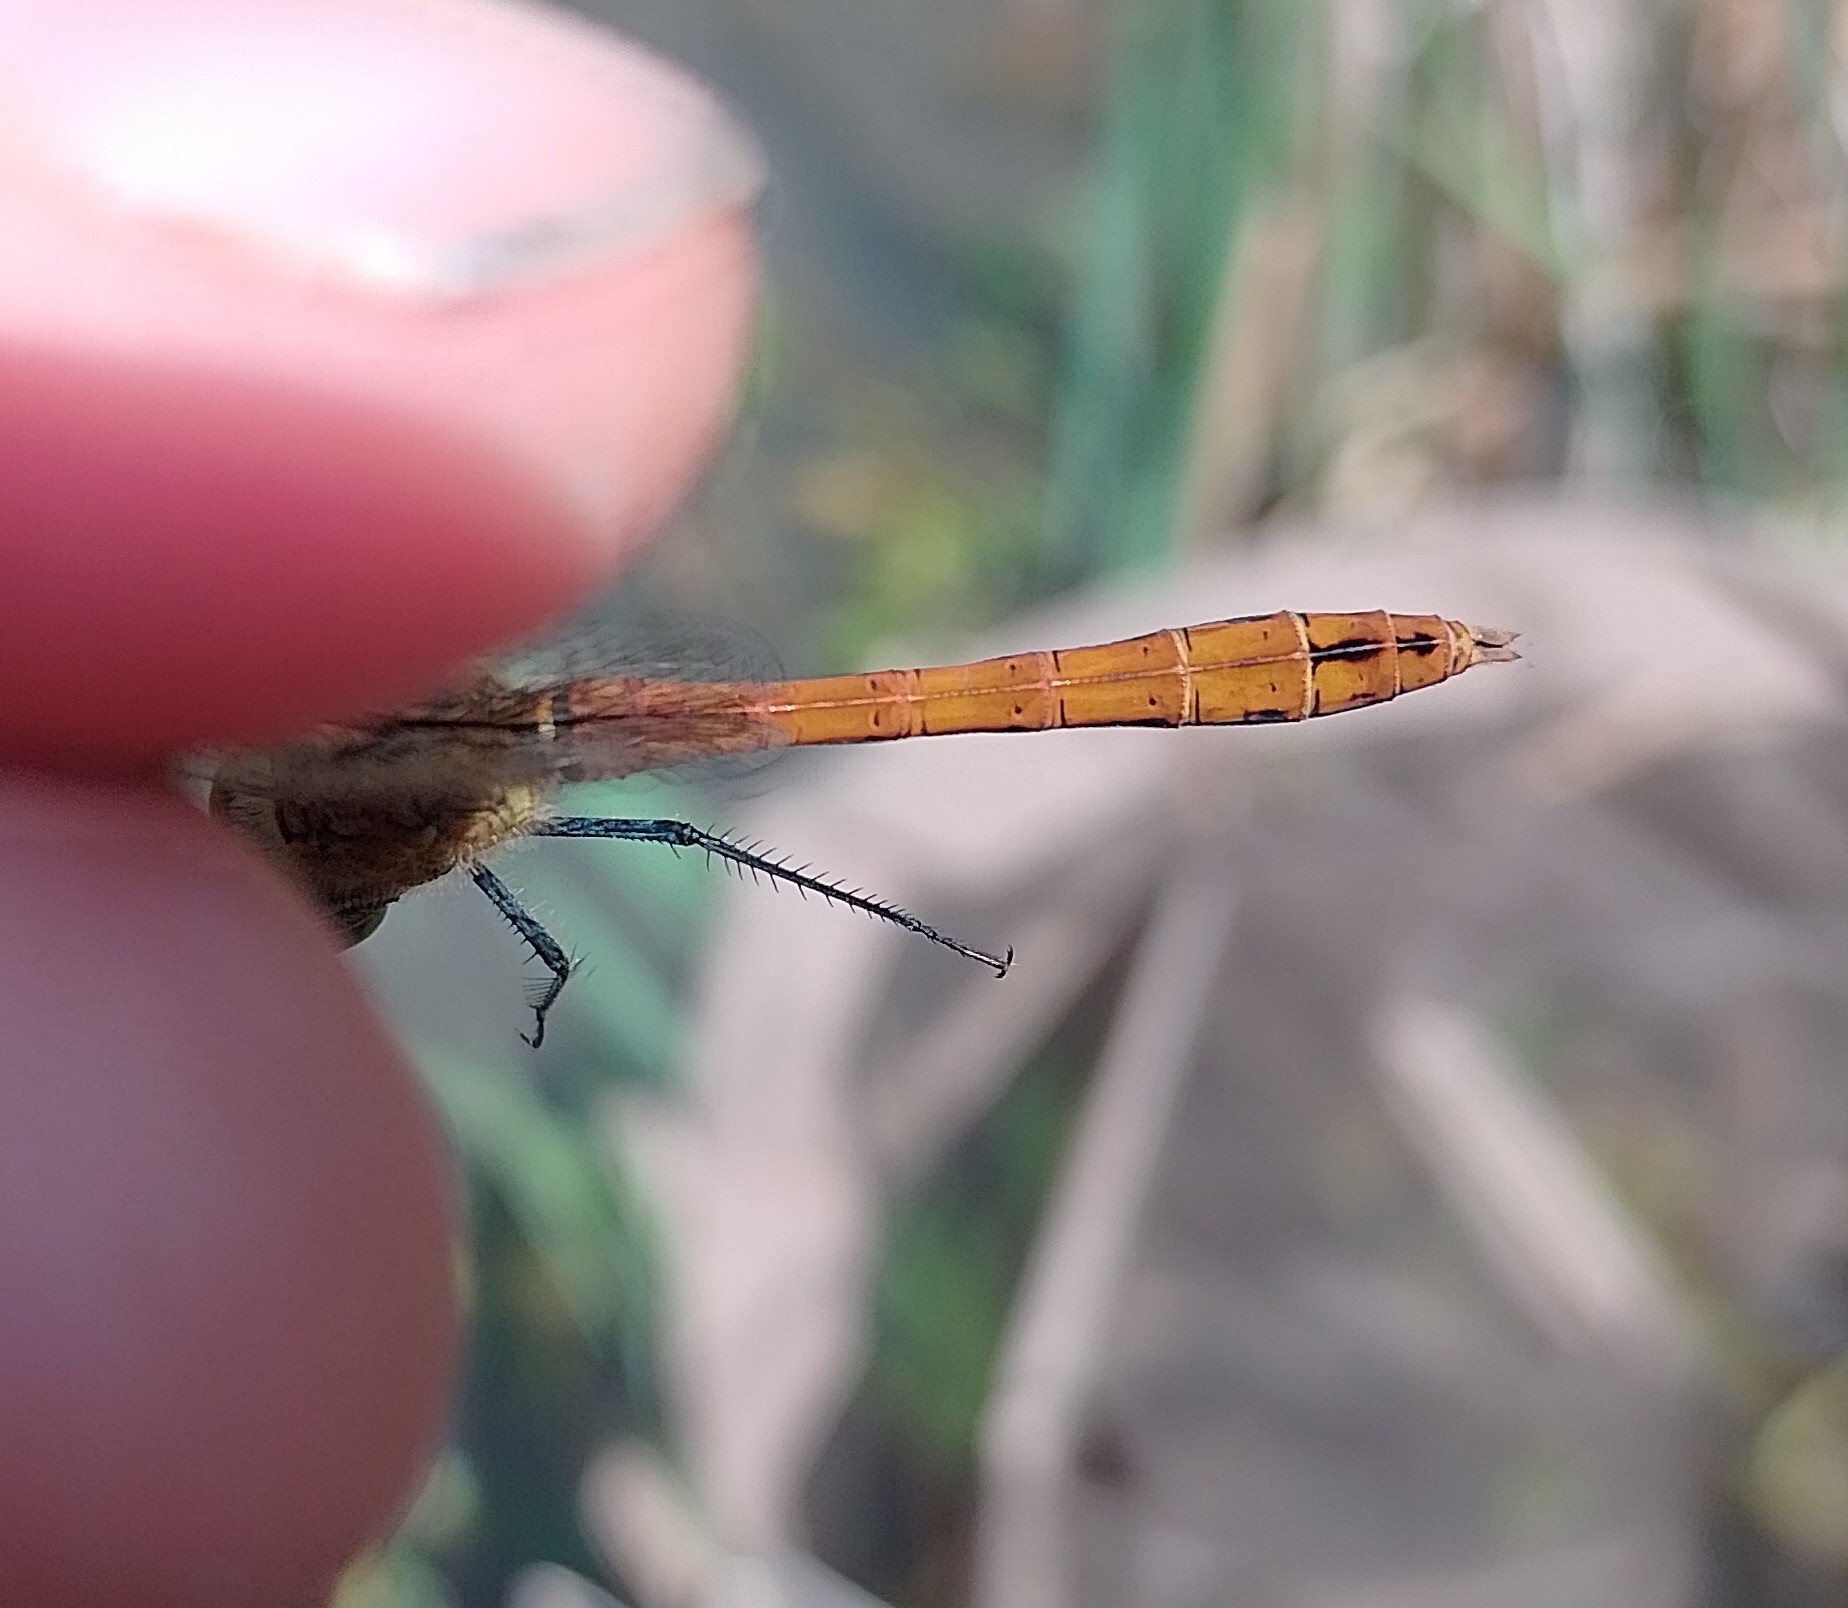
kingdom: Animalia
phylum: Arthropoda
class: Insecta
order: Odonata
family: Libellulidae
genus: Sympetrum
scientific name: Sympetrum sanguineum
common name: Ruddy darter
